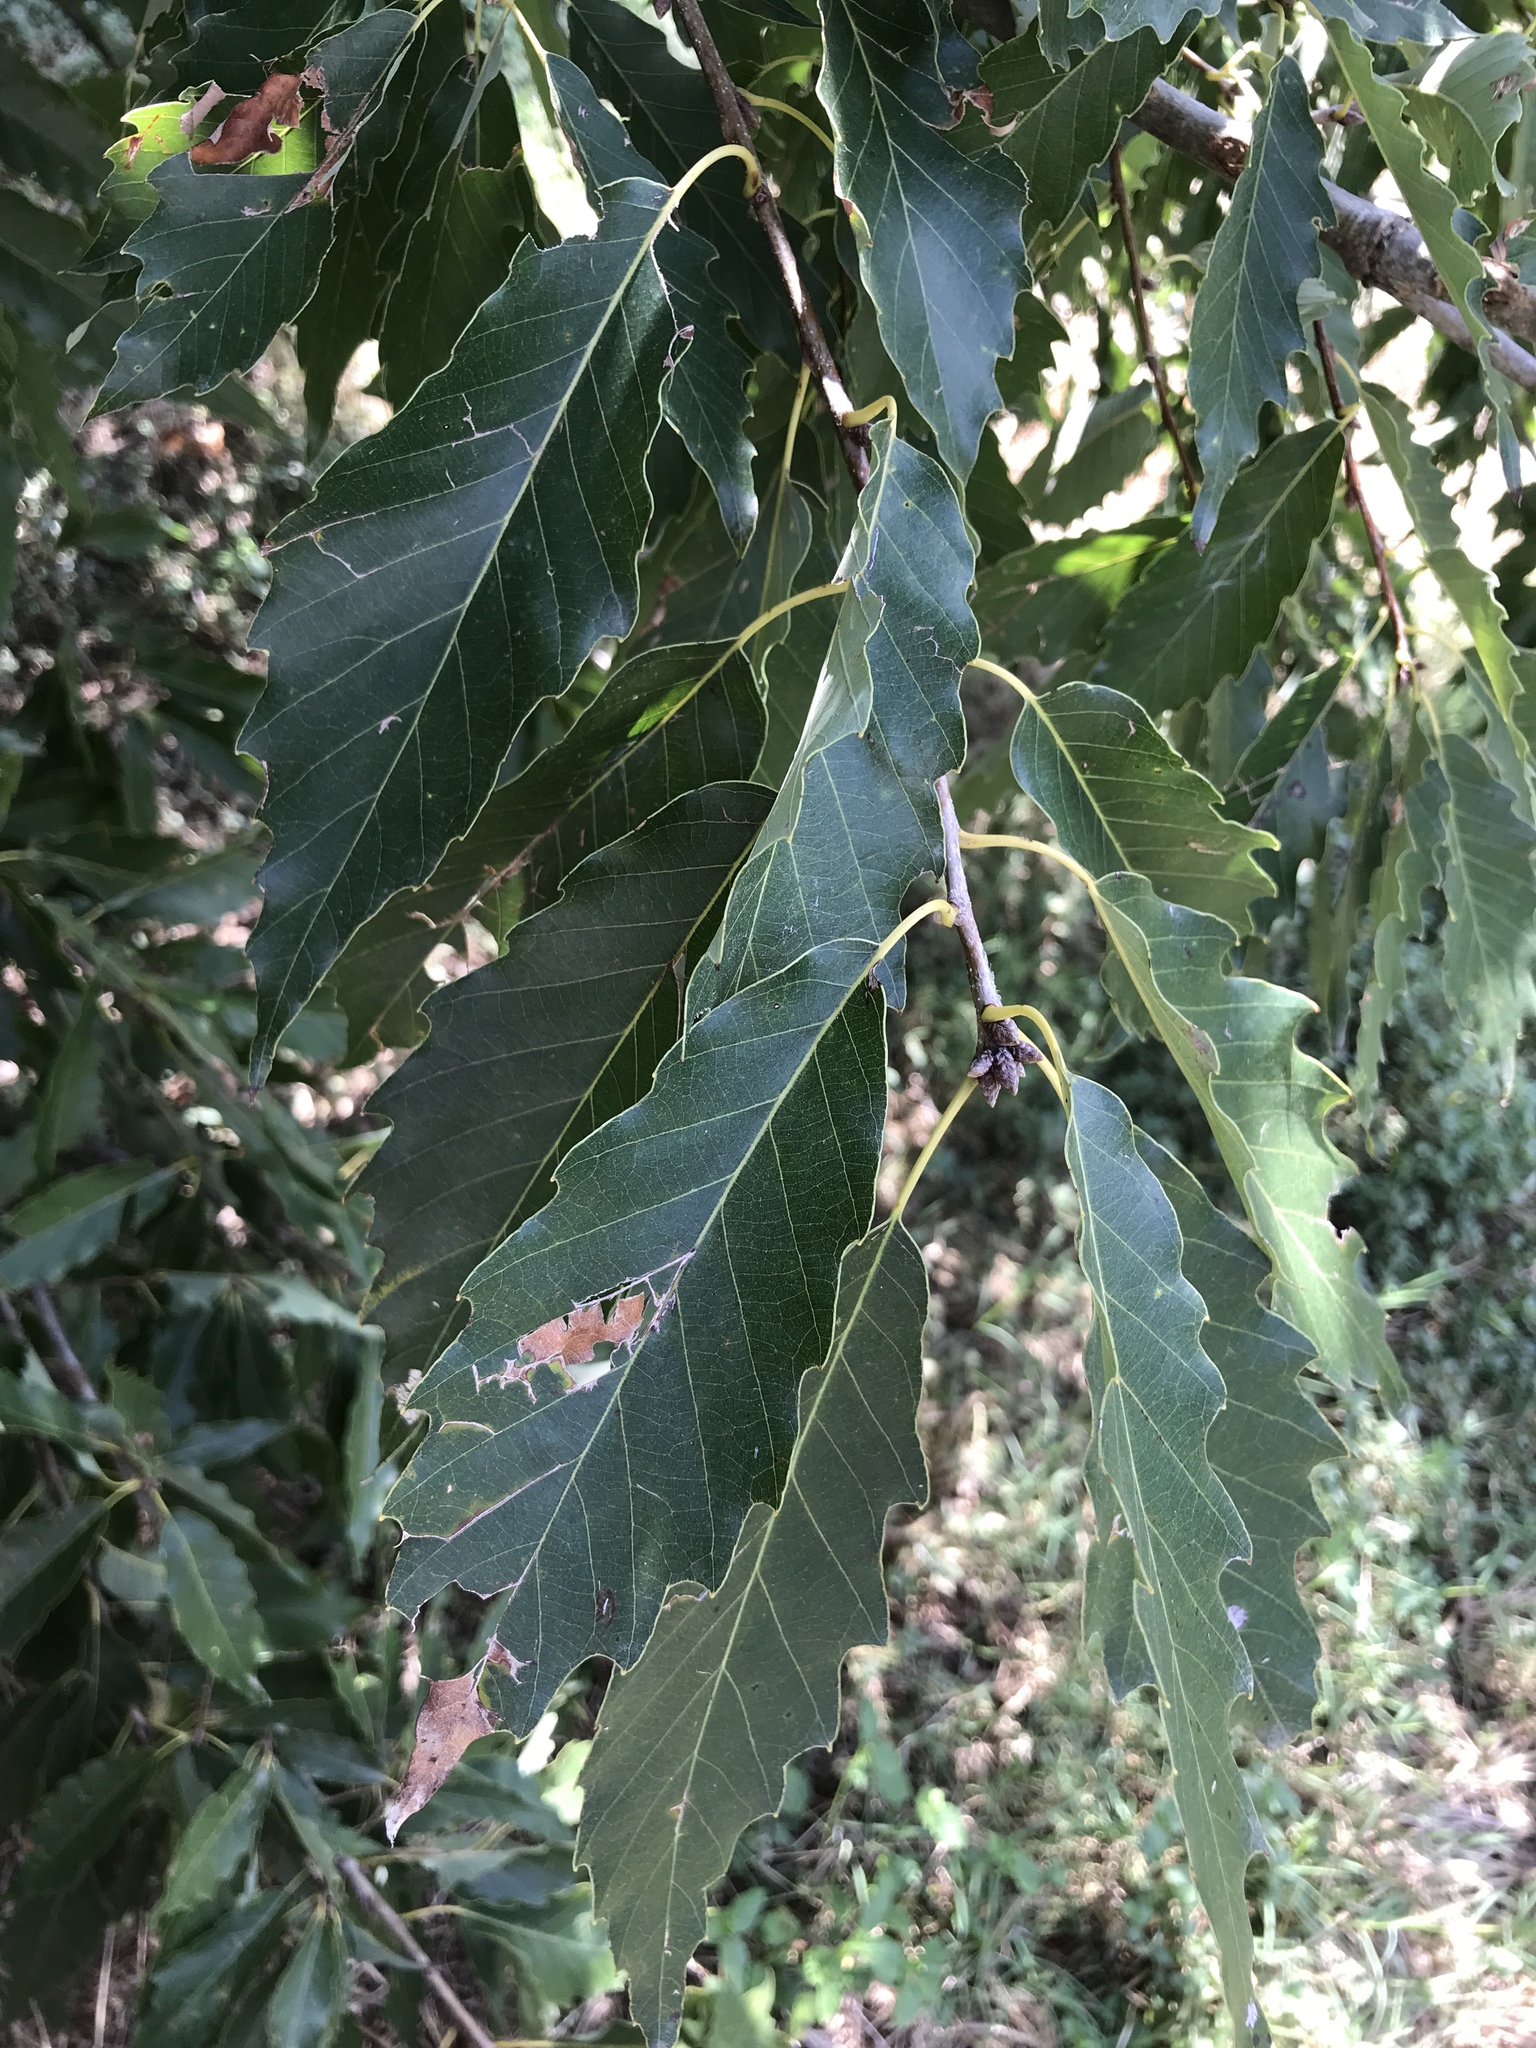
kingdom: Plantae
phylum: Tracheophyta
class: Magnoliopsida
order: Fagales
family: Fagaceae
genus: Quercus
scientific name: Quercus muehlenbergii
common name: Chinkapin oak
